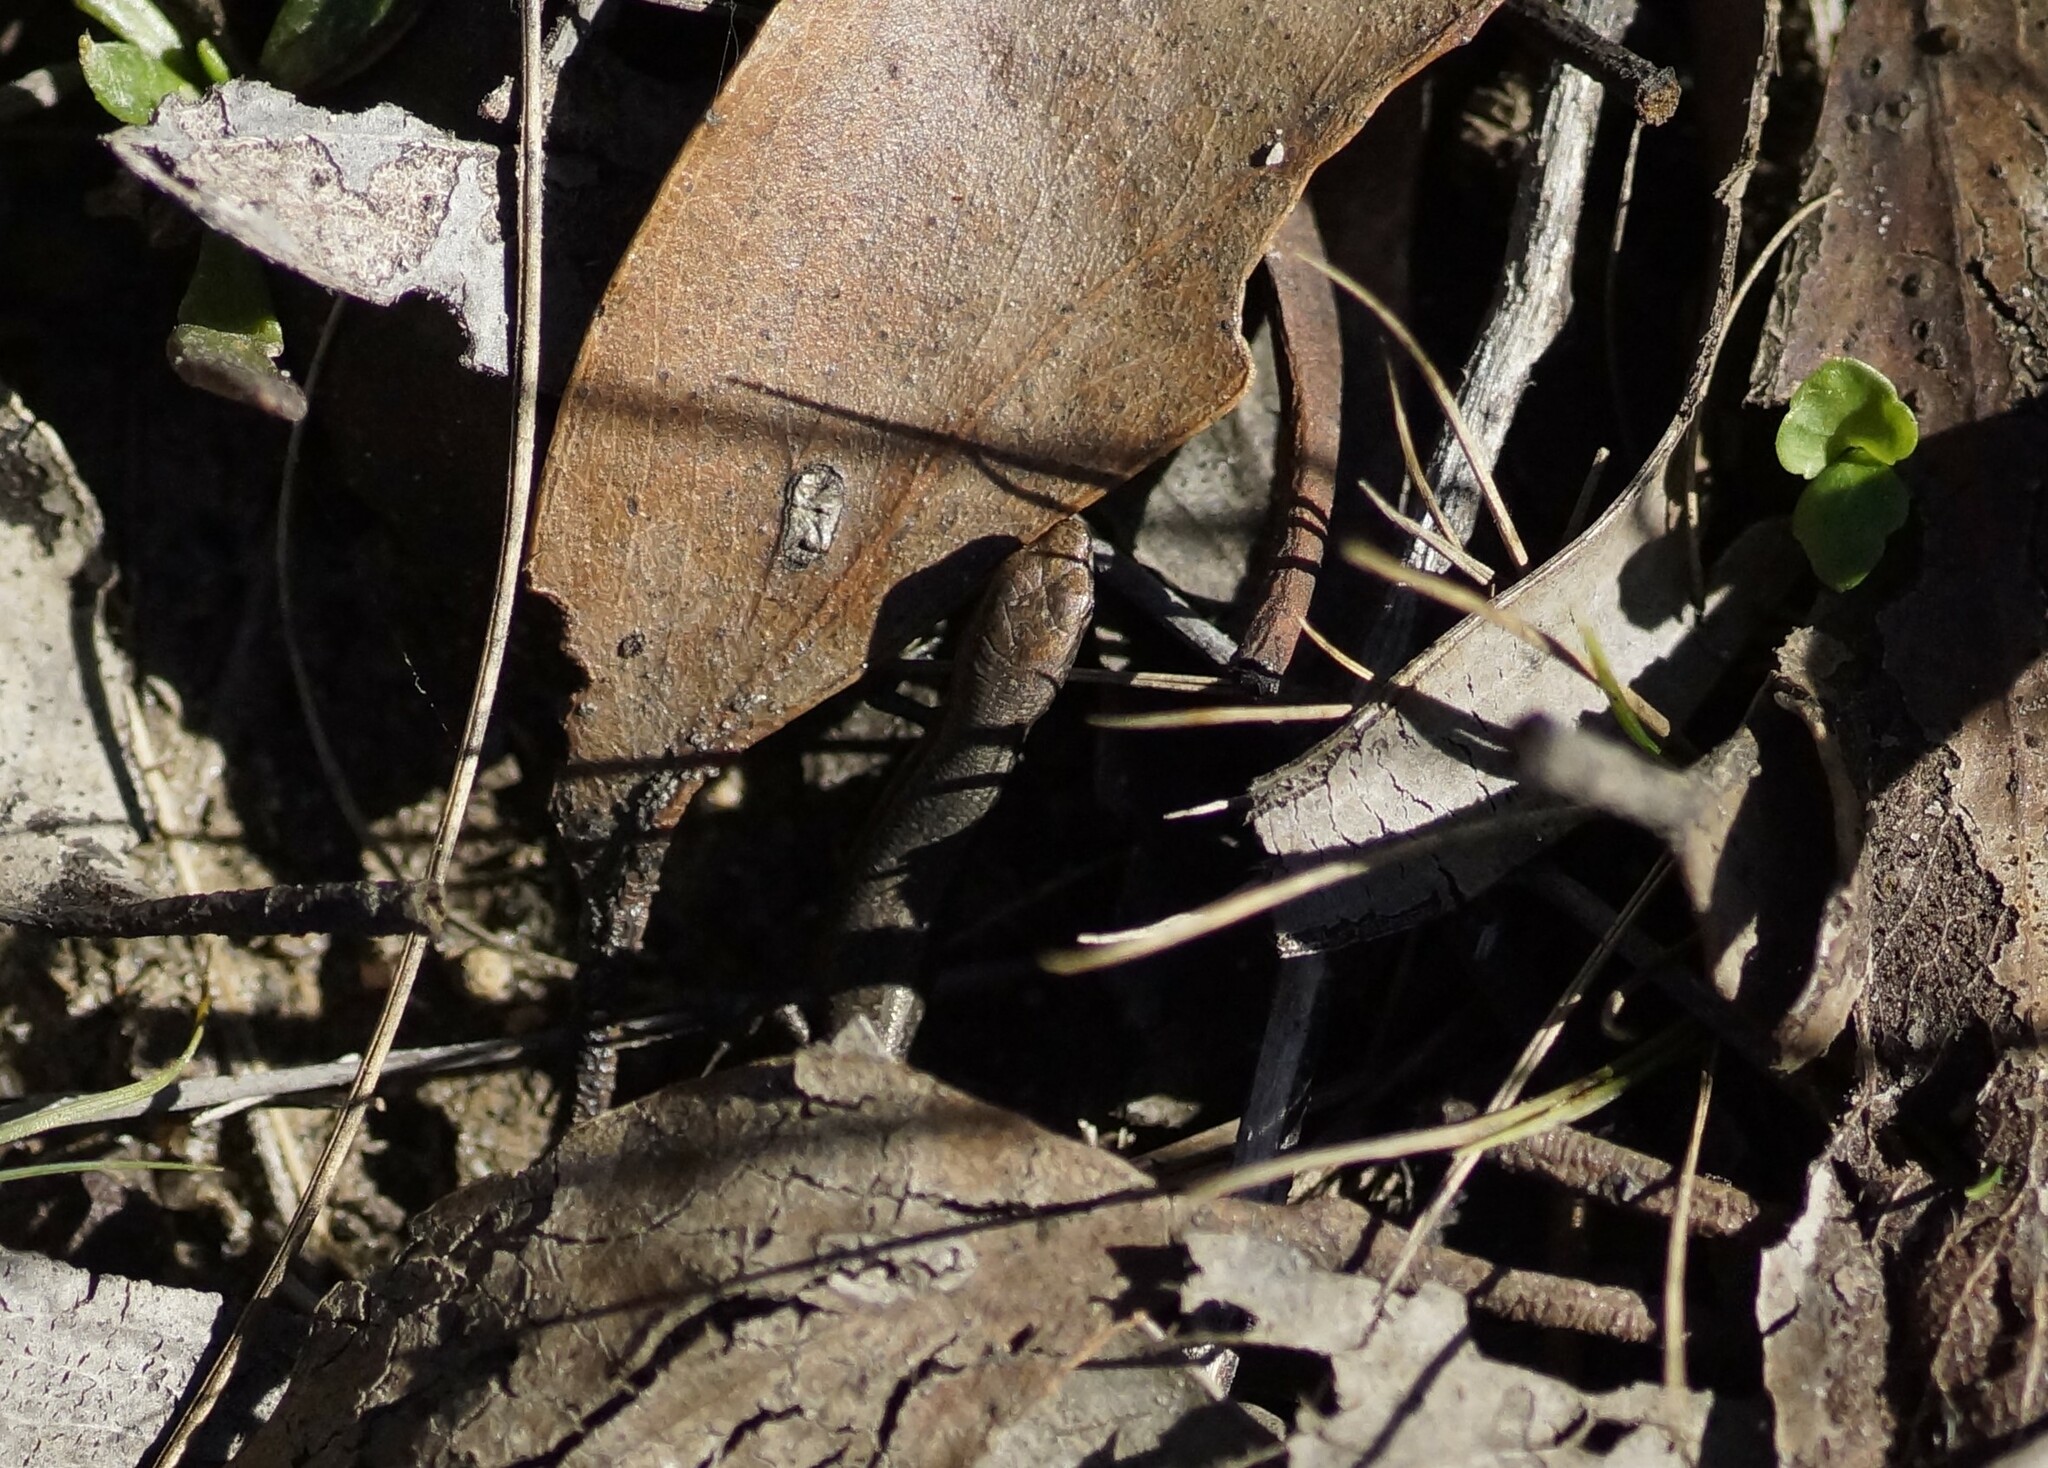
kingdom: Animalia
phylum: Chordata
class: Squamata
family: Scincidae
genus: Lampropholis
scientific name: Lampropholis guichenoti
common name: Garden skink
